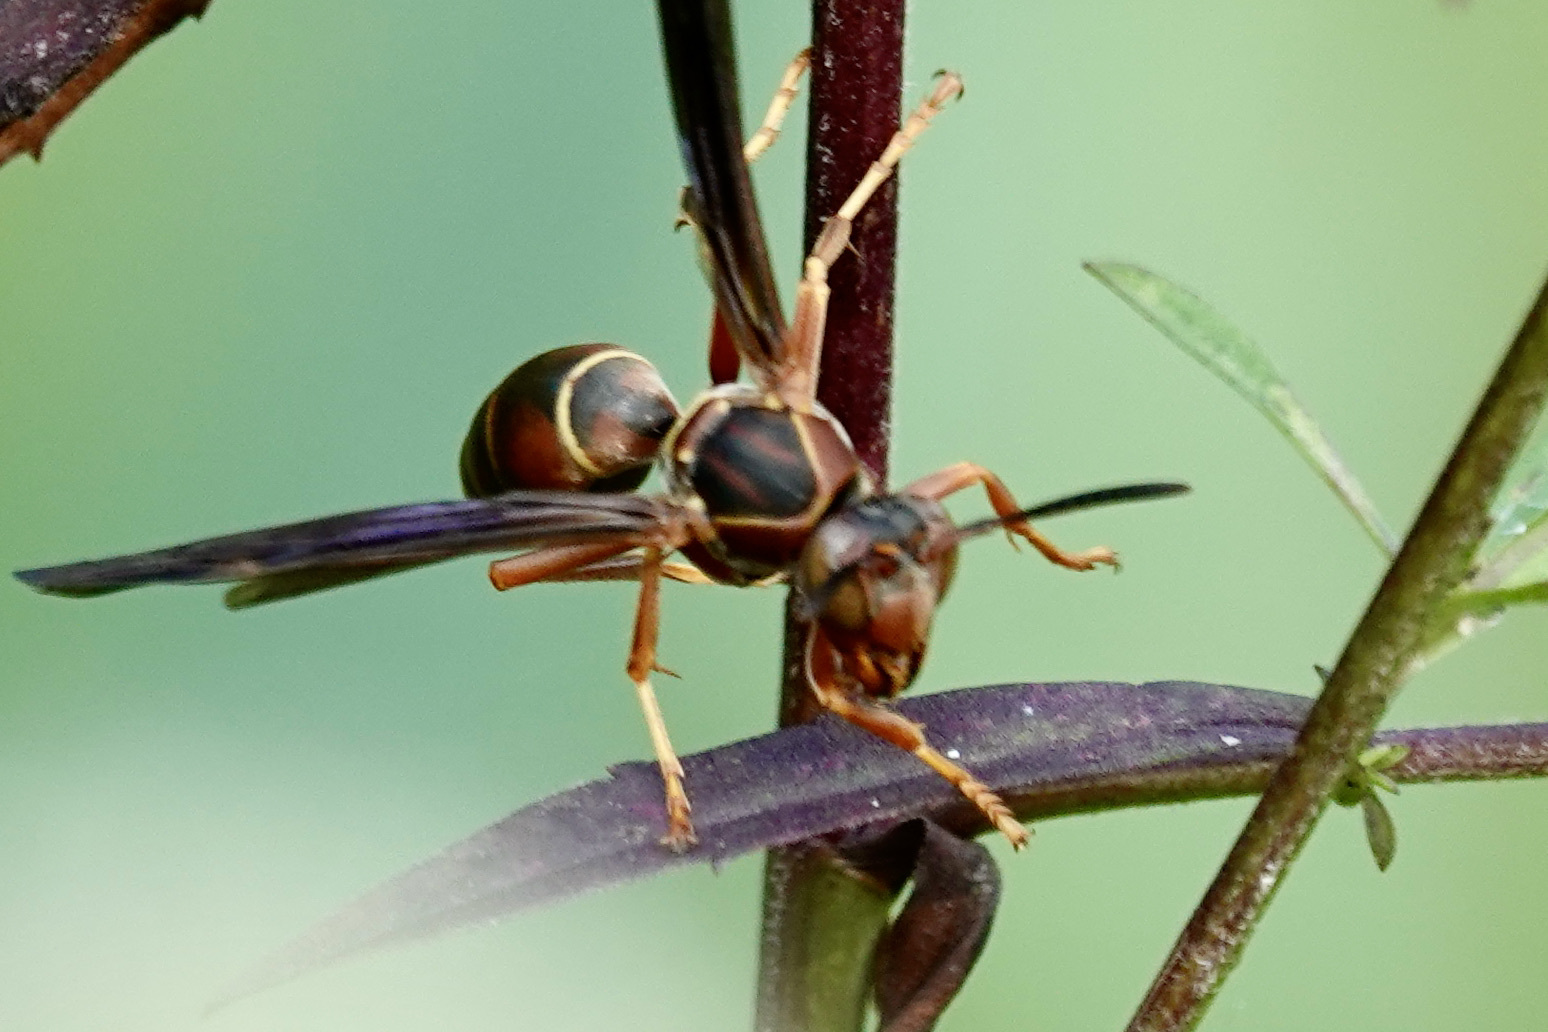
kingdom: Animalia
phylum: Arthropoda
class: Insecta
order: Hymenoptera
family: Eumenidae
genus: Polistes
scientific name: Polistes fuscatus
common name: Dark paper wasp
